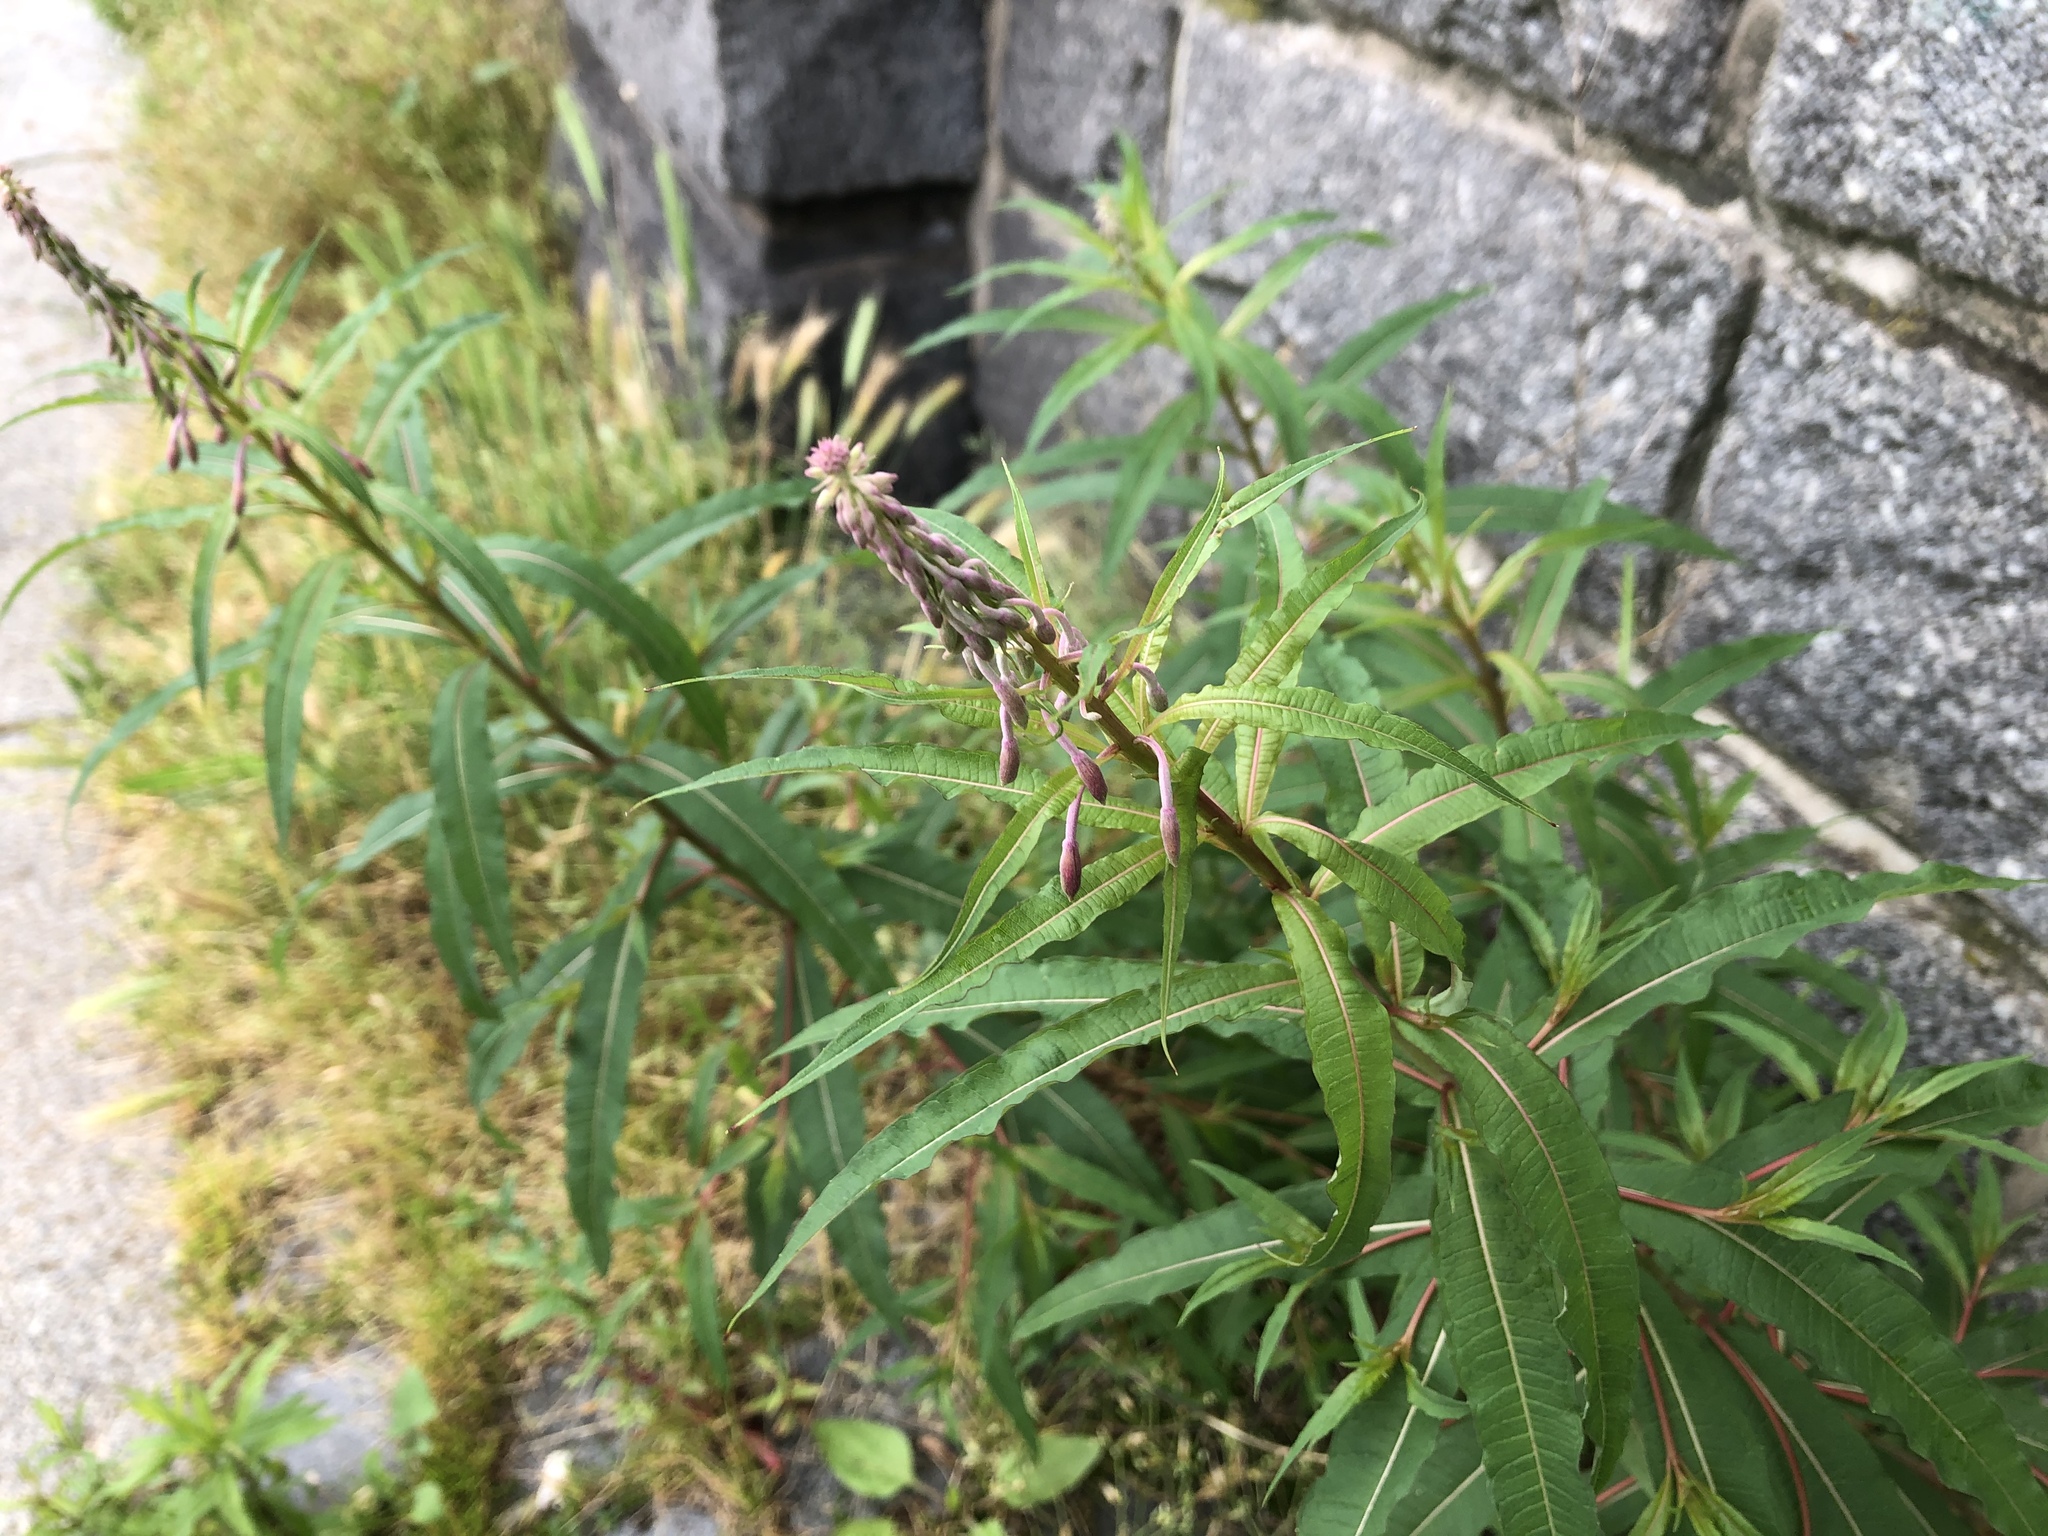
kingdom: Plantae
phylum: Tracheophyta
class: Magnoliopsida
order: Myrtales
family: Onagraceae
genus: Chamaenerion
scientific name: Chamaenerion angustifolium
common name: Fireweed
